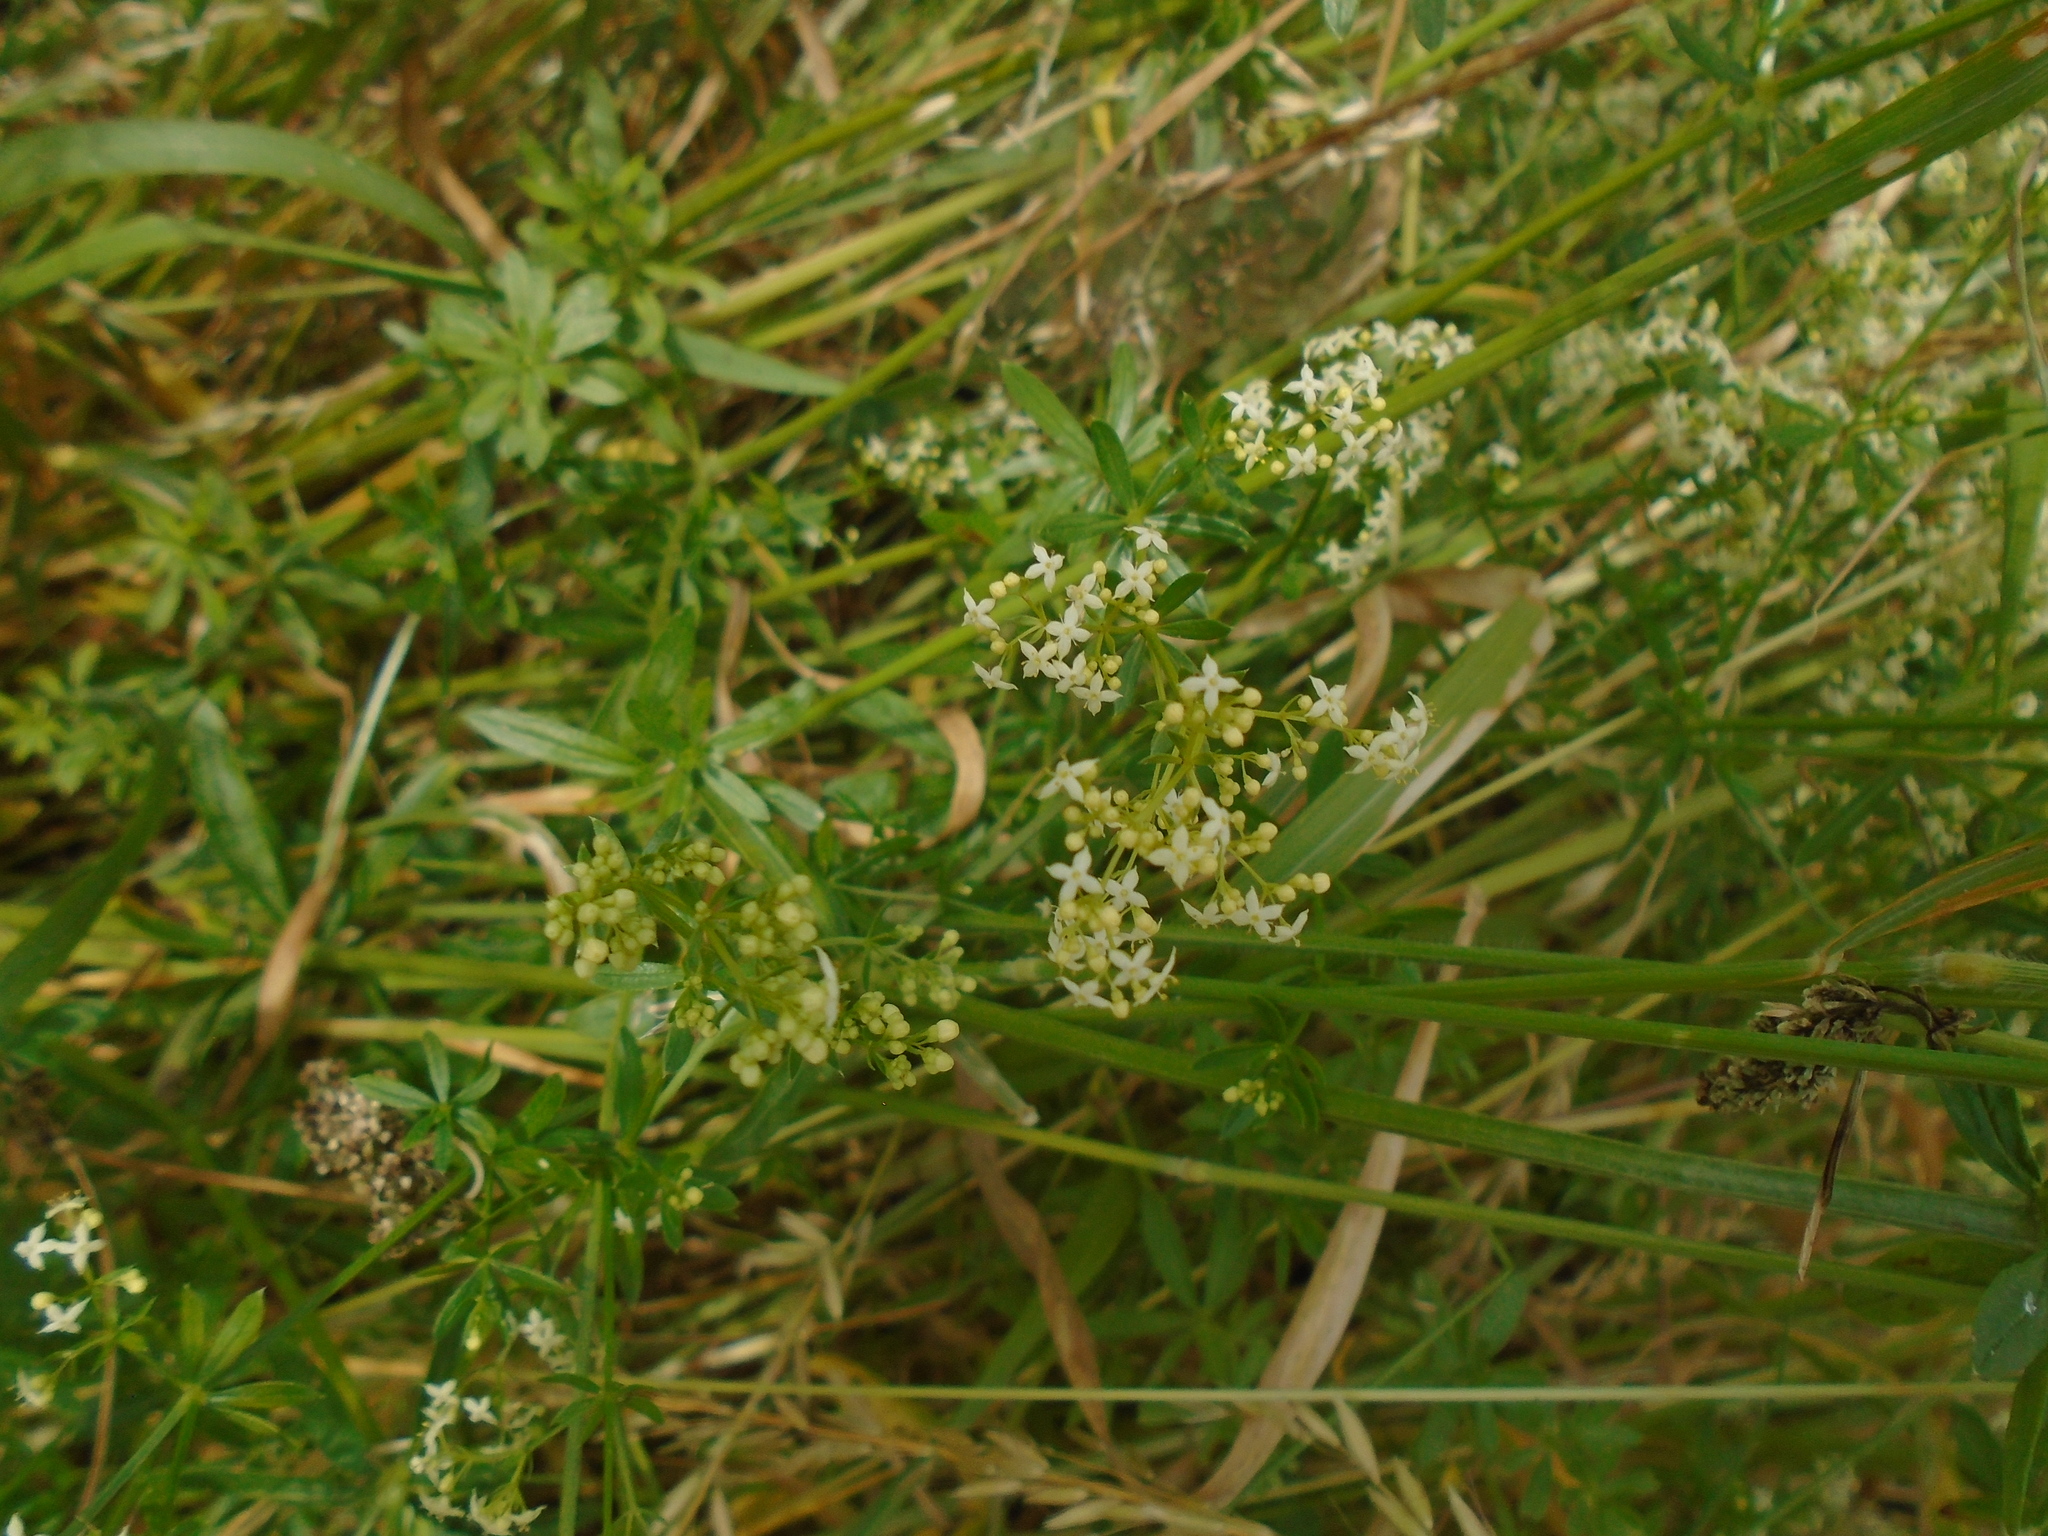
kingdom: Plantae
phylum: Tracheophyta
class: Magnoliopsida
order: Gentianales
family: Rubiaceae
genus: Galium
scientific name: Galium album
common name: White bedstraw
